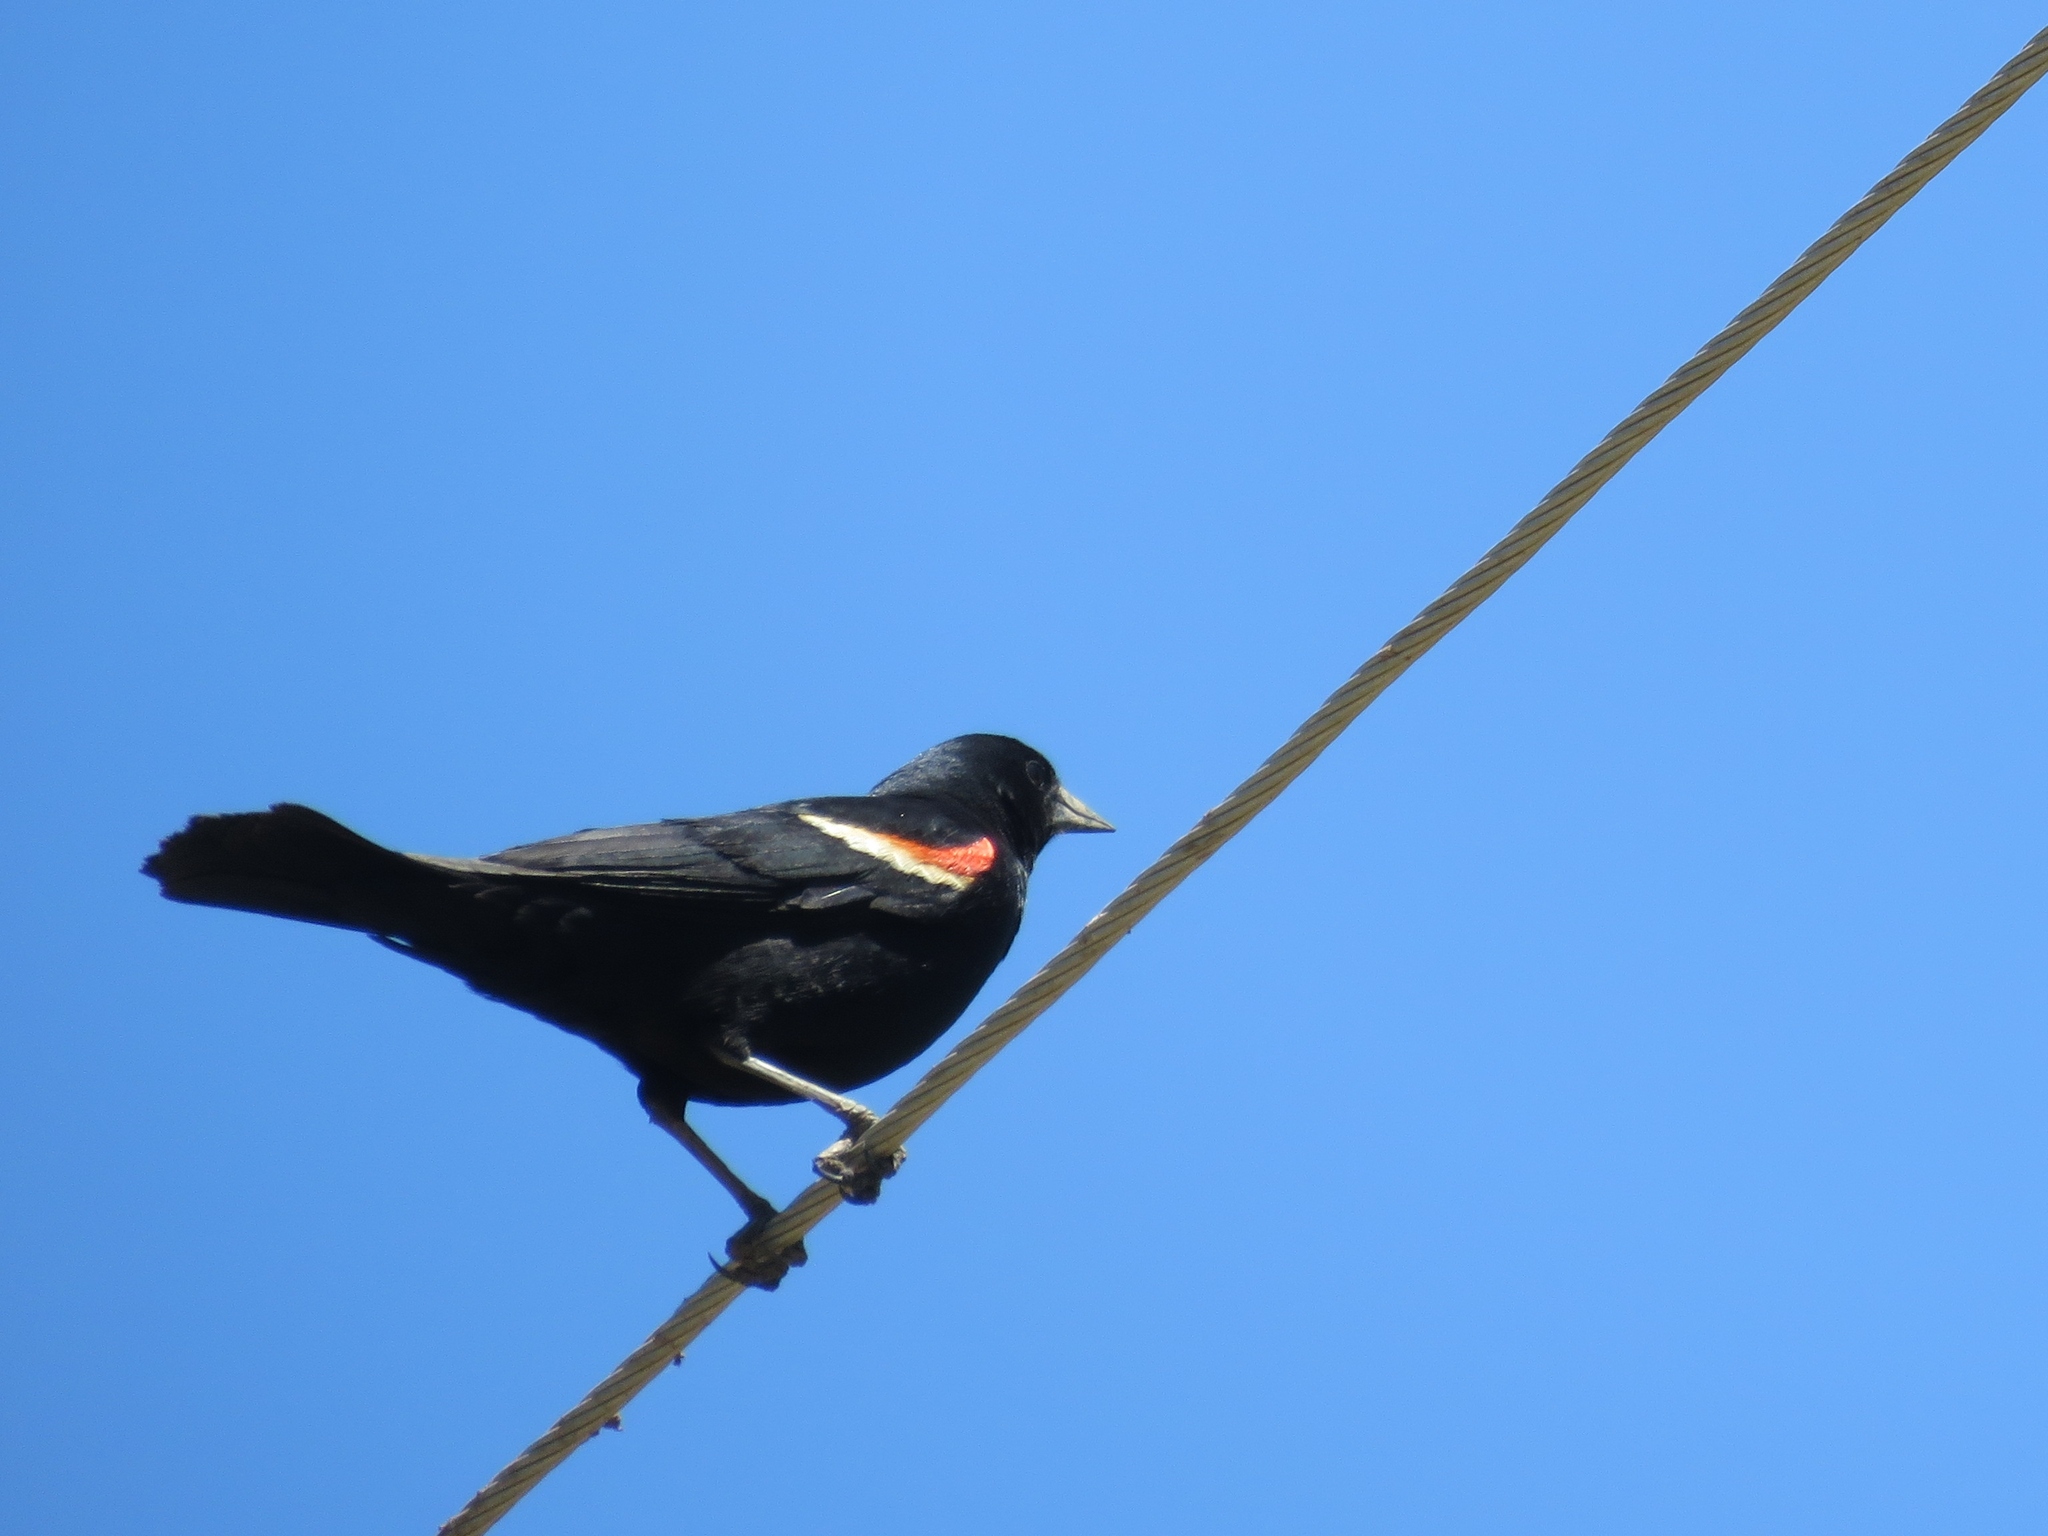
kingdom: Animalia
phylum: Chordata
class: Aves
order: Passeriformes
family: Icteridae
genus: Agelaius
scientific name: Agelaius phoeniceus
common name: Red-winged blackbird
